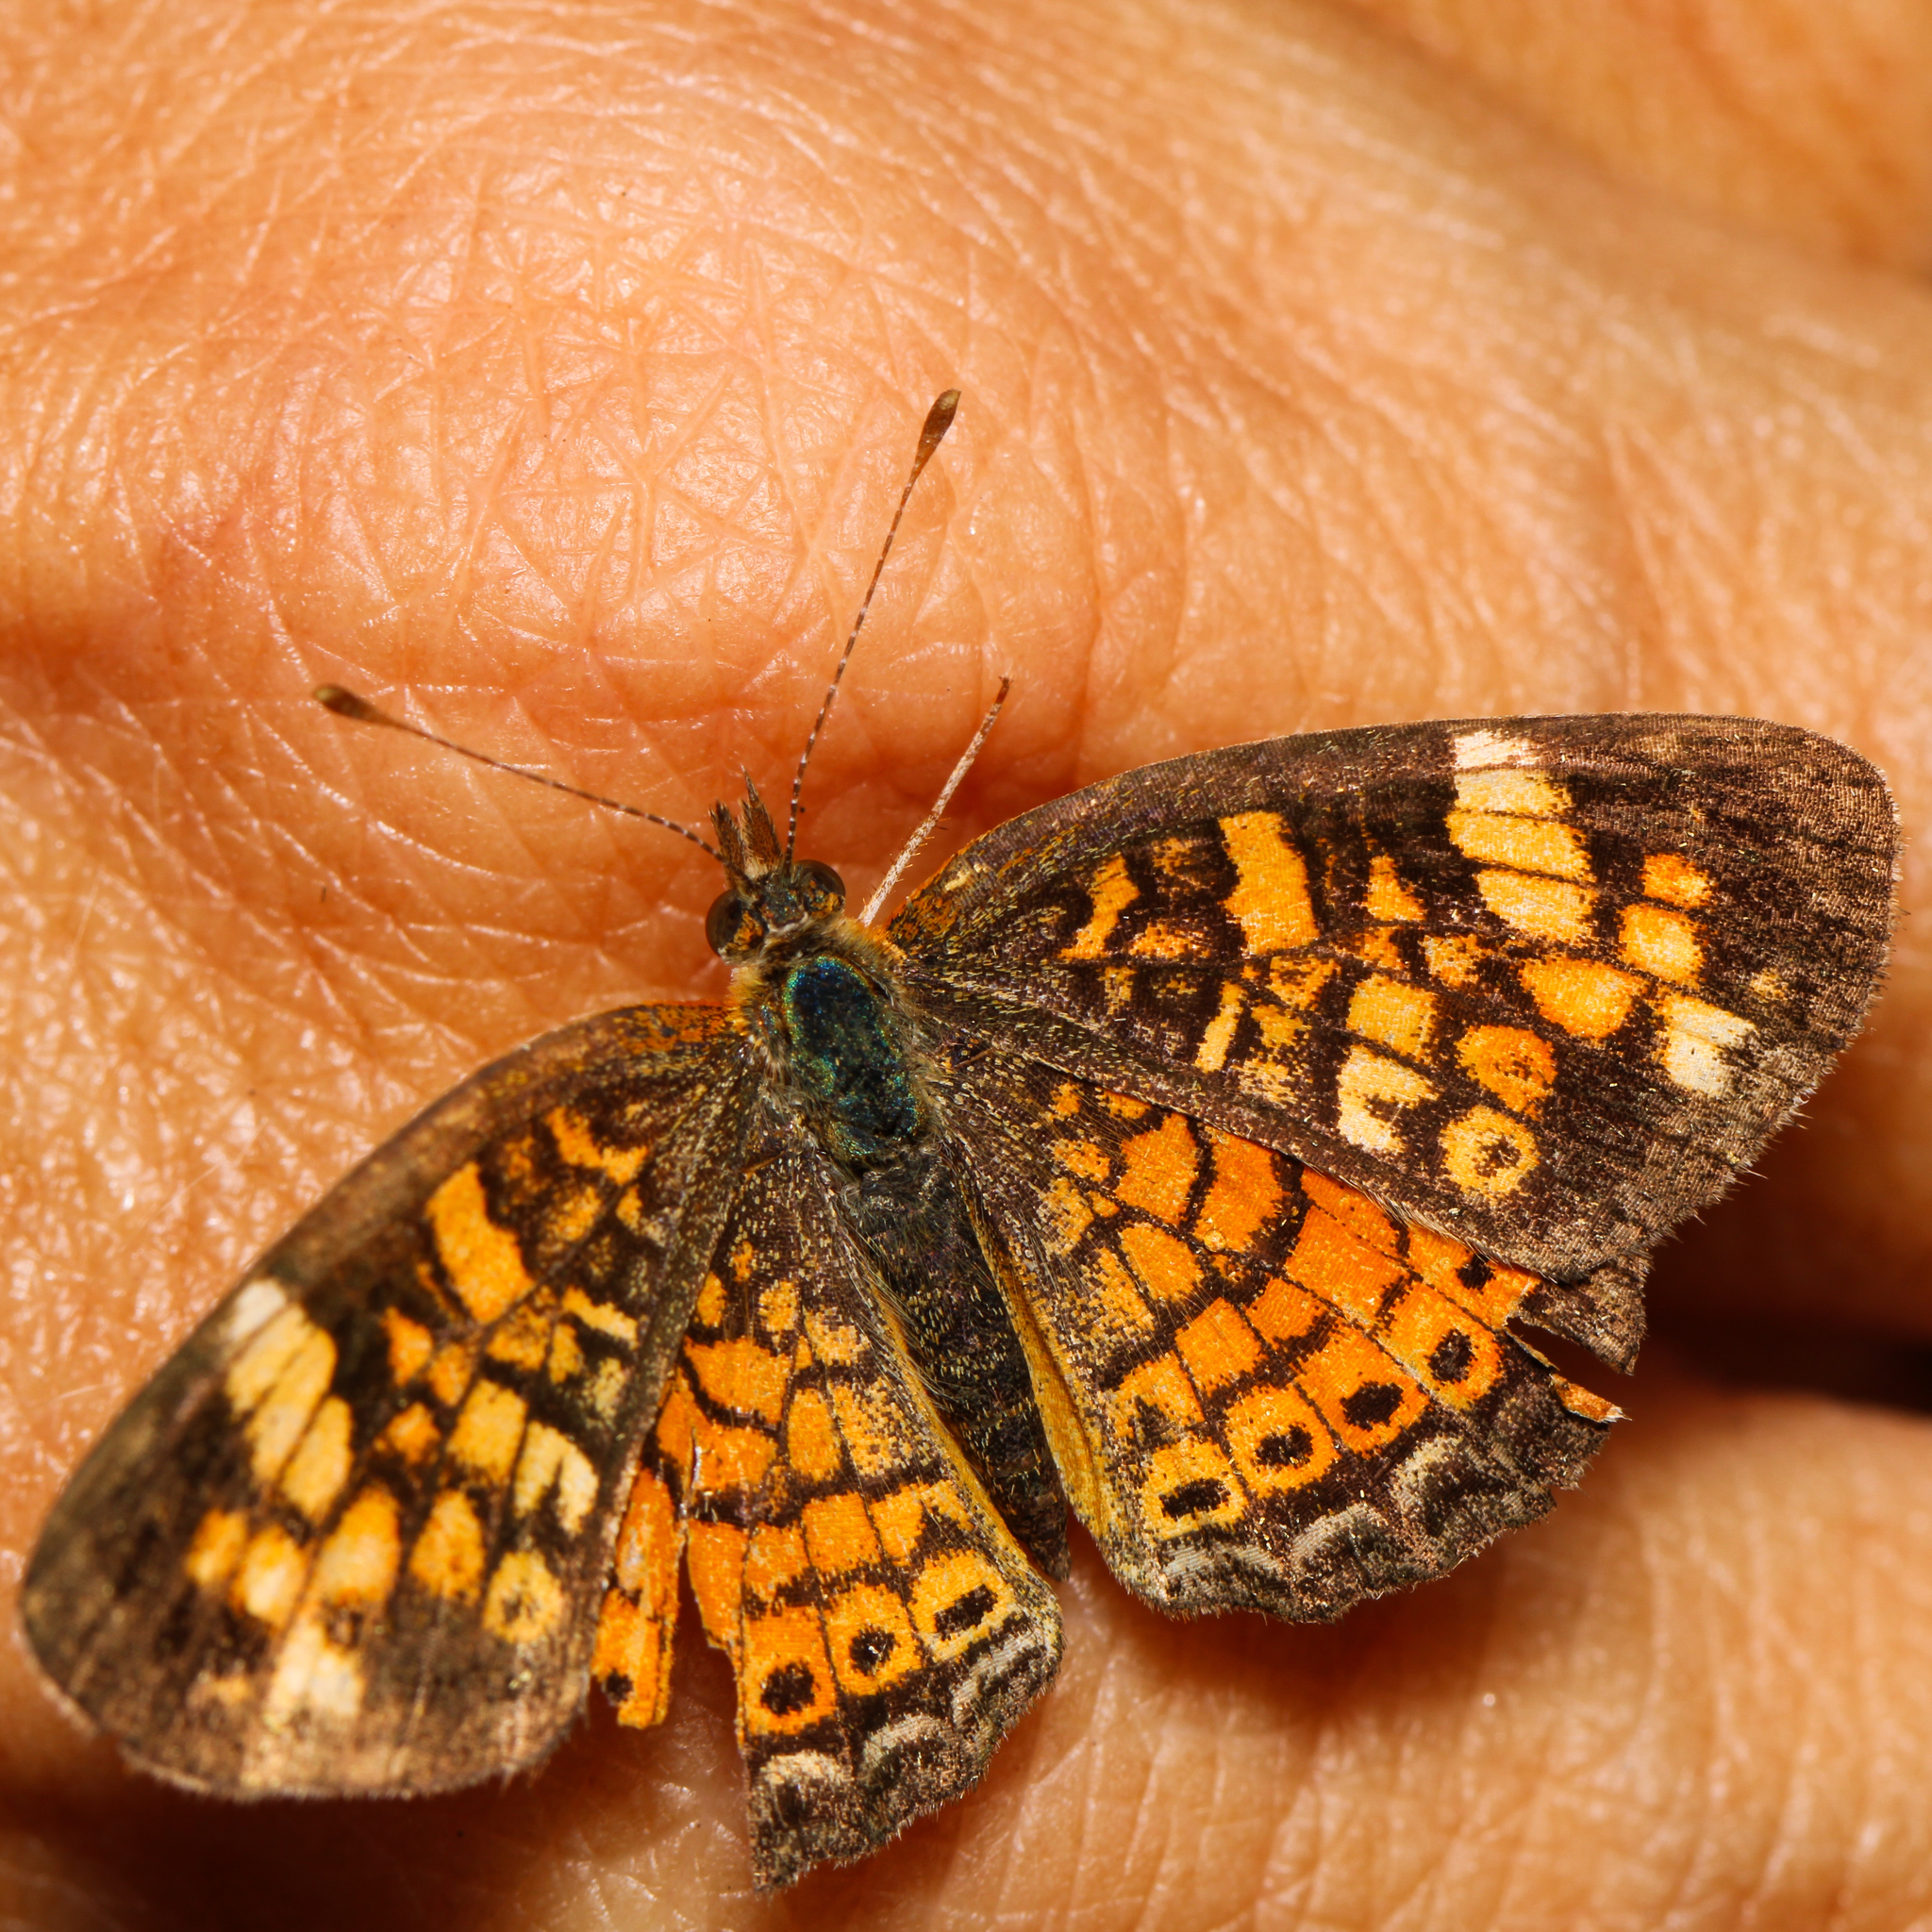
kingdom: Animalia
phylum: Arthropoda
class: Insecta
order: Lepidoptera
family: Nymphalidae
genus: Phyciodes
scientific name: Phyciodes tharos
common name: Pearl crescent
